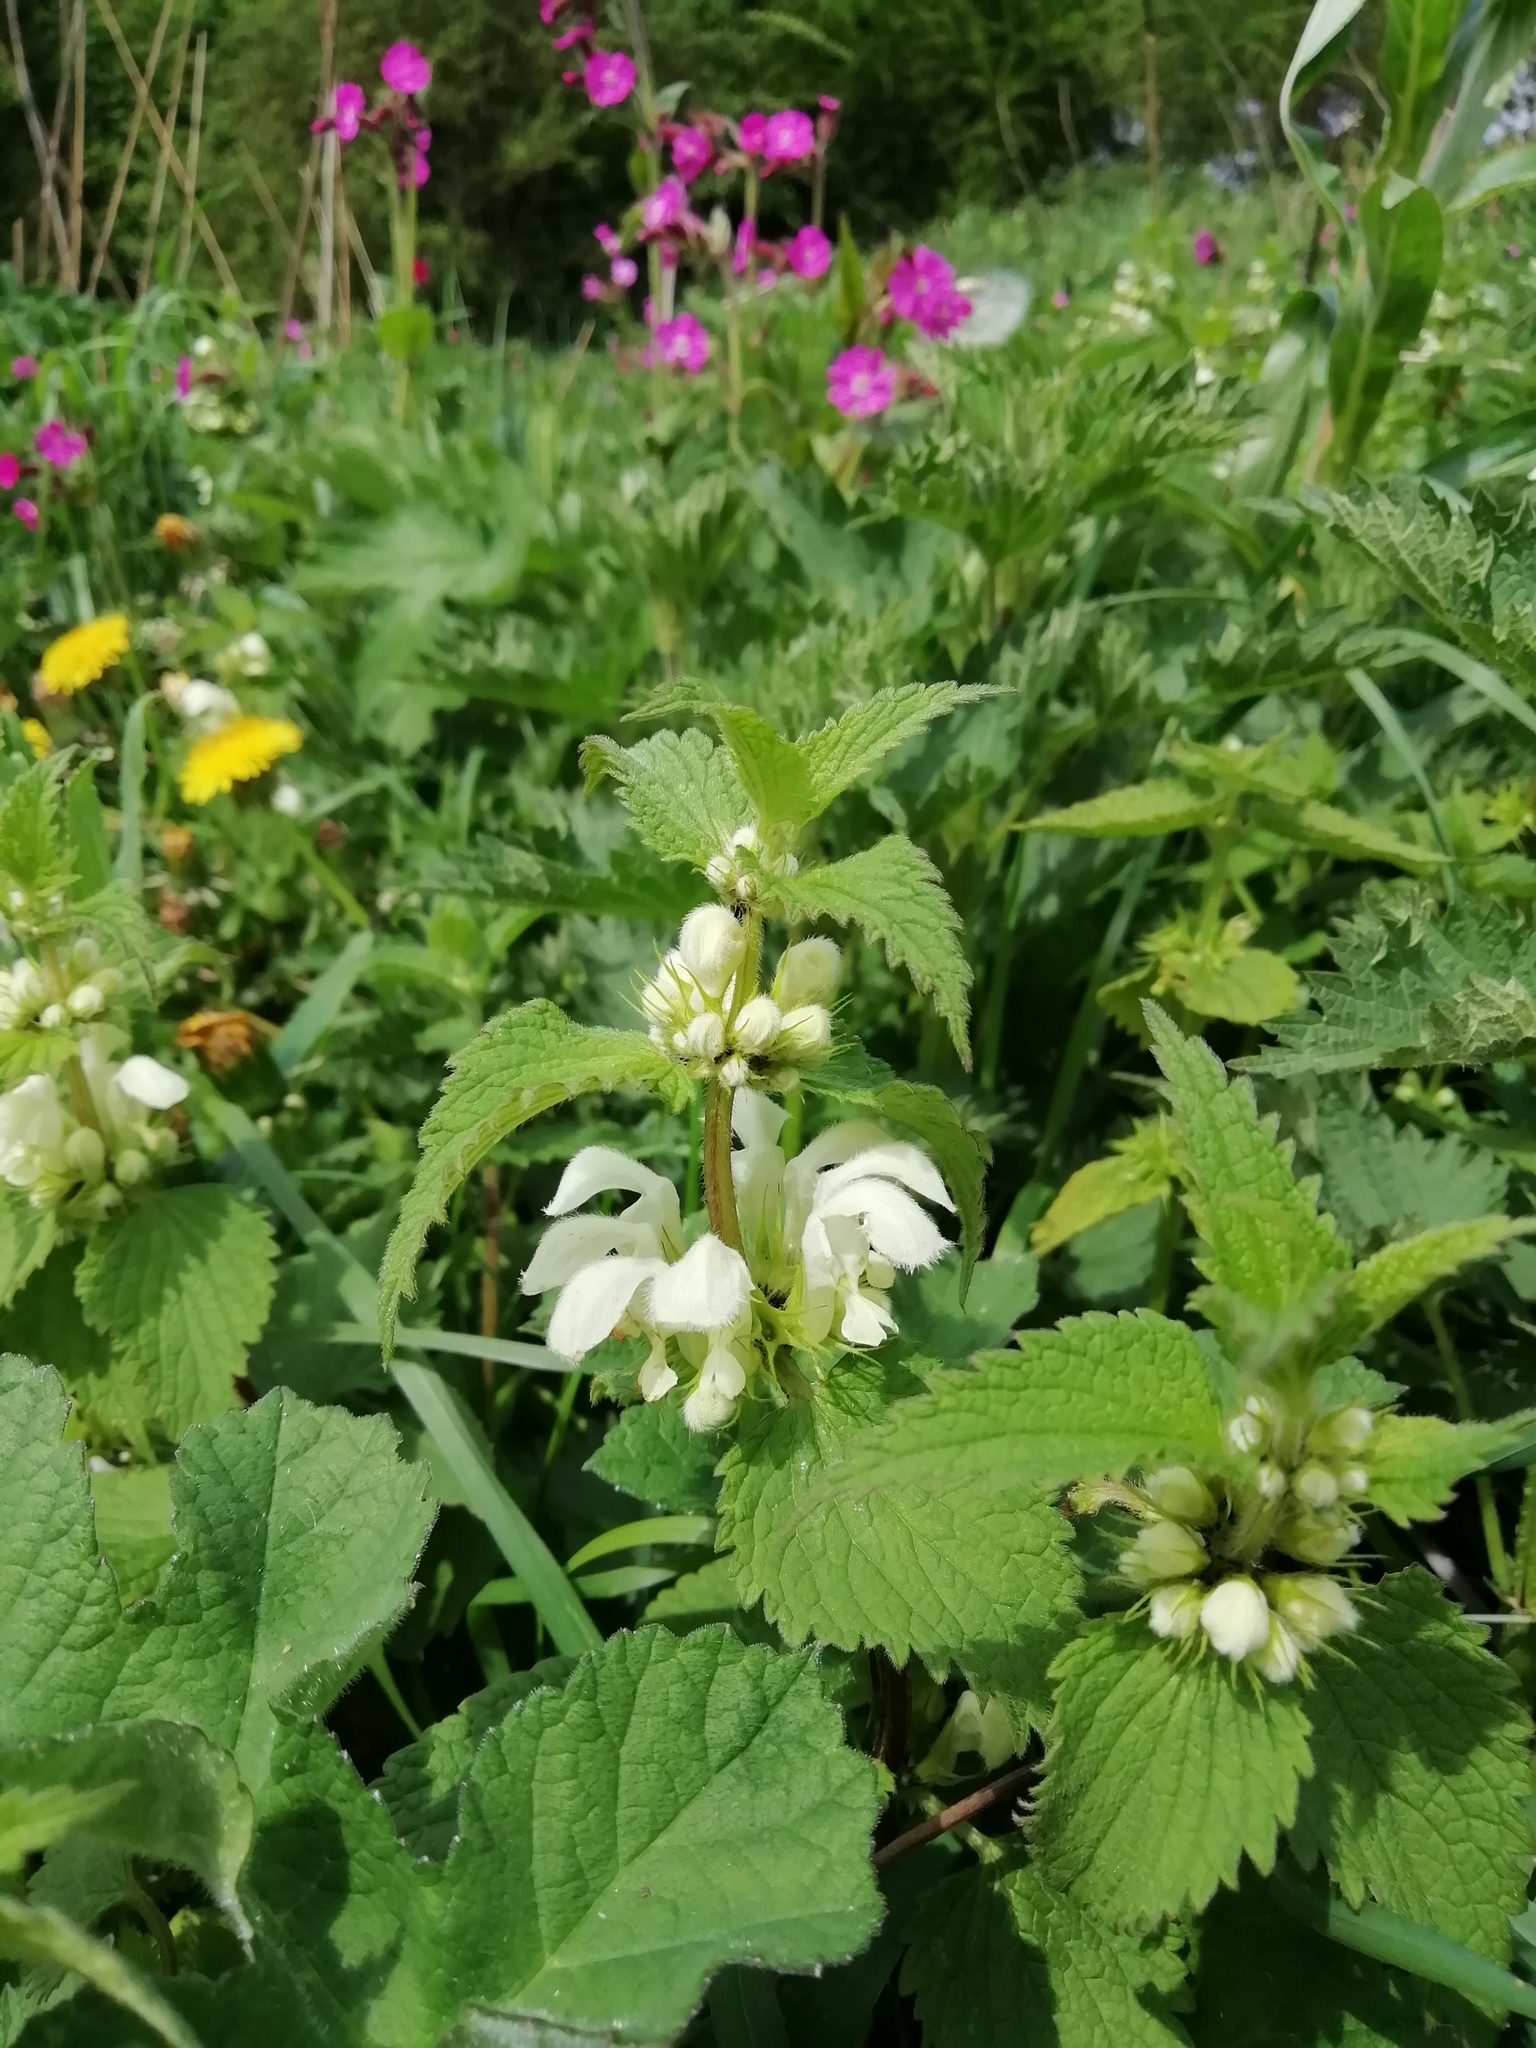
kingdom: Plantae
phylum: Tracheophyta
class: Magnoliopsida
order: Lamiales
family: Lamiaceae
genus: Lamium
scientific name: Lamium album
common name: White dead-nettle
